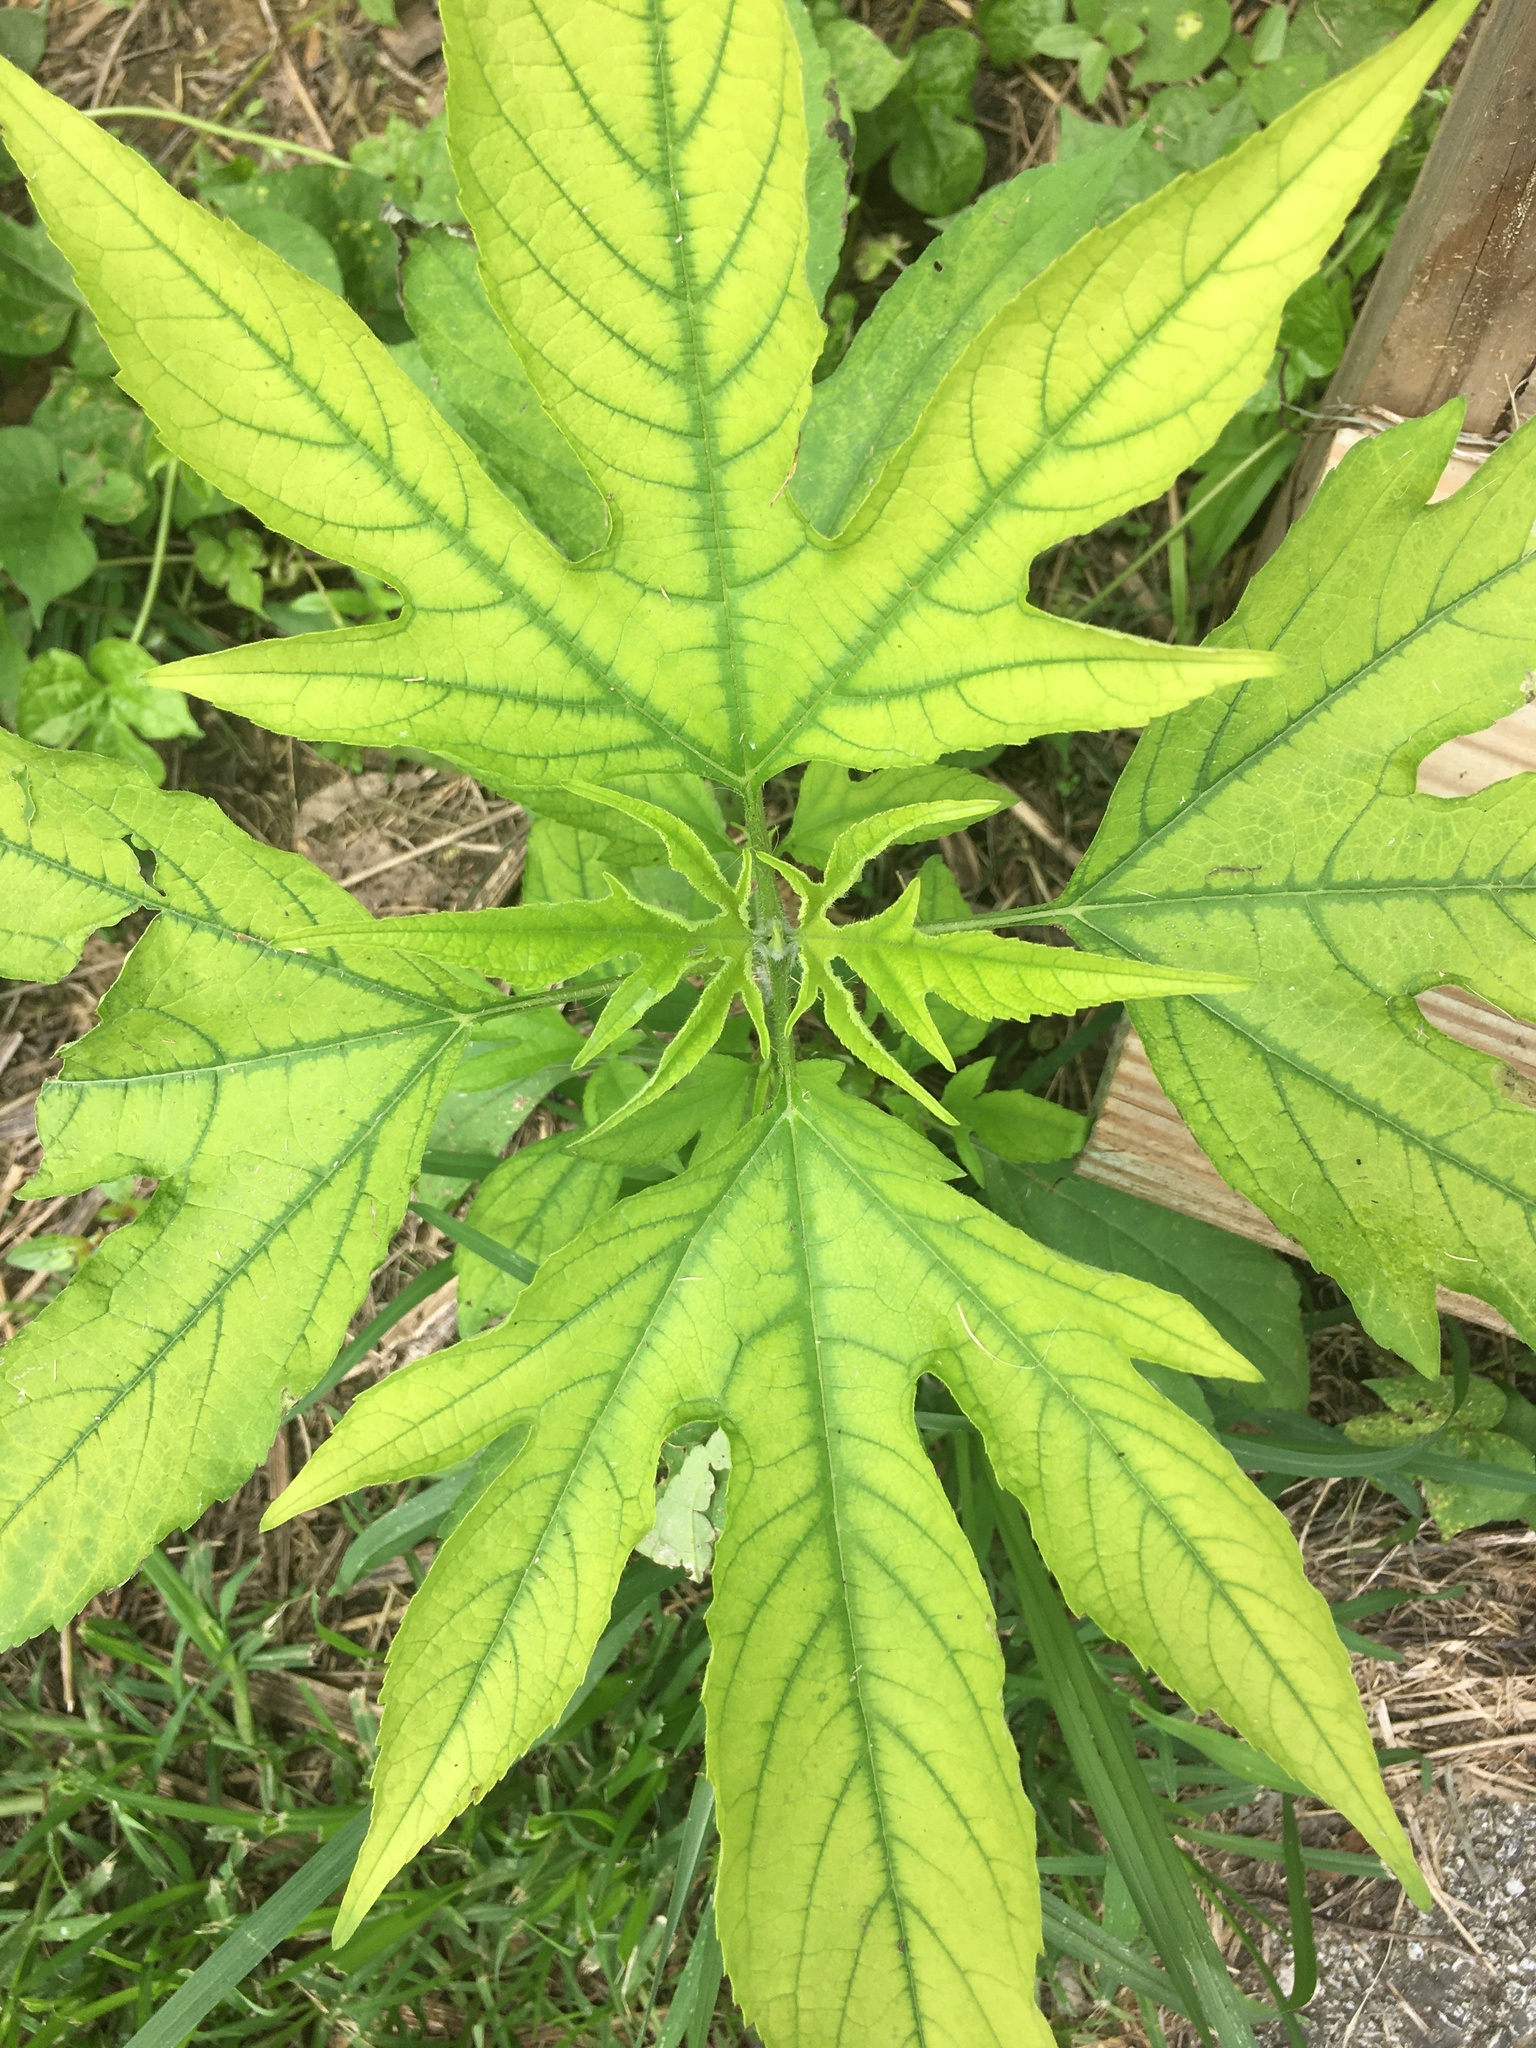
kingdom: Plantae
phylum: Tracheophyta
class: Magnoliopsida
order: Asterales
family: Asteraceae
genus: Ambrosia
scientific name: Ambrosia trifida
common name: Giant ragweed
